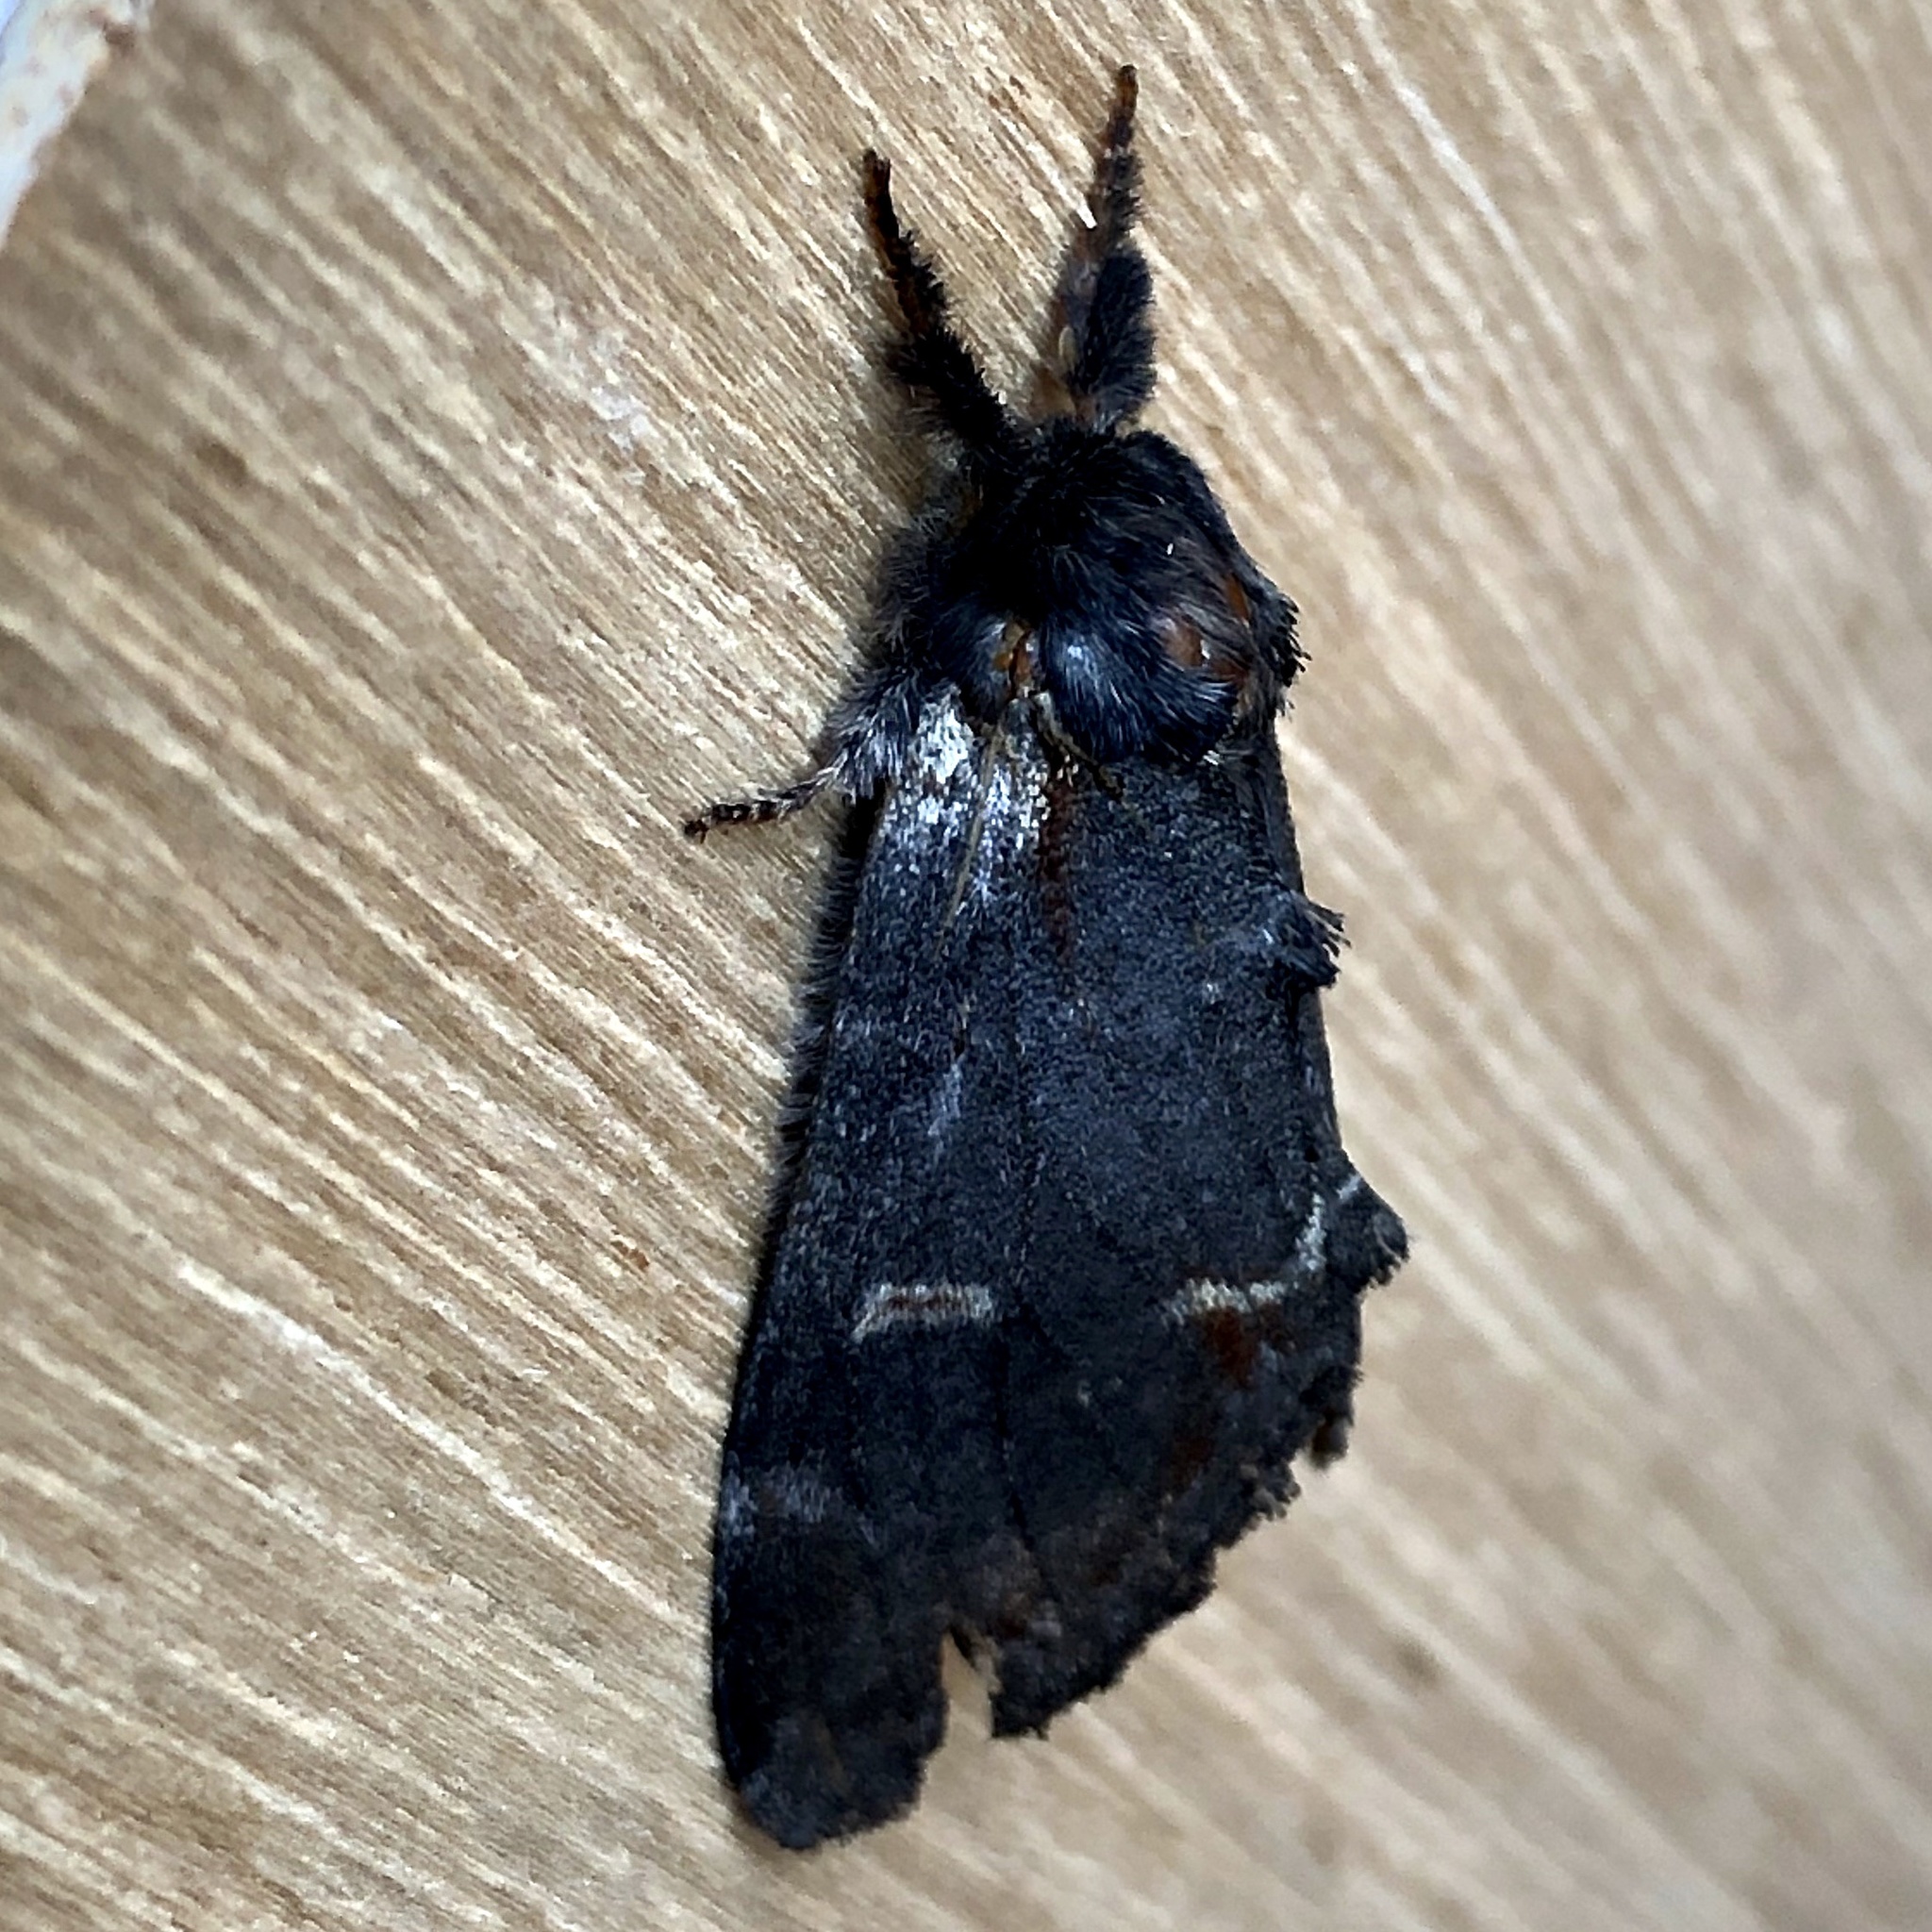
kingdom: Animalia
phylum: Arthropoda
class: Insecta
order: Lepidoptera
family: Notodontidae
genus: Notodonta
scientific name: Notodonta dromedarius
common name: Iron prominent
